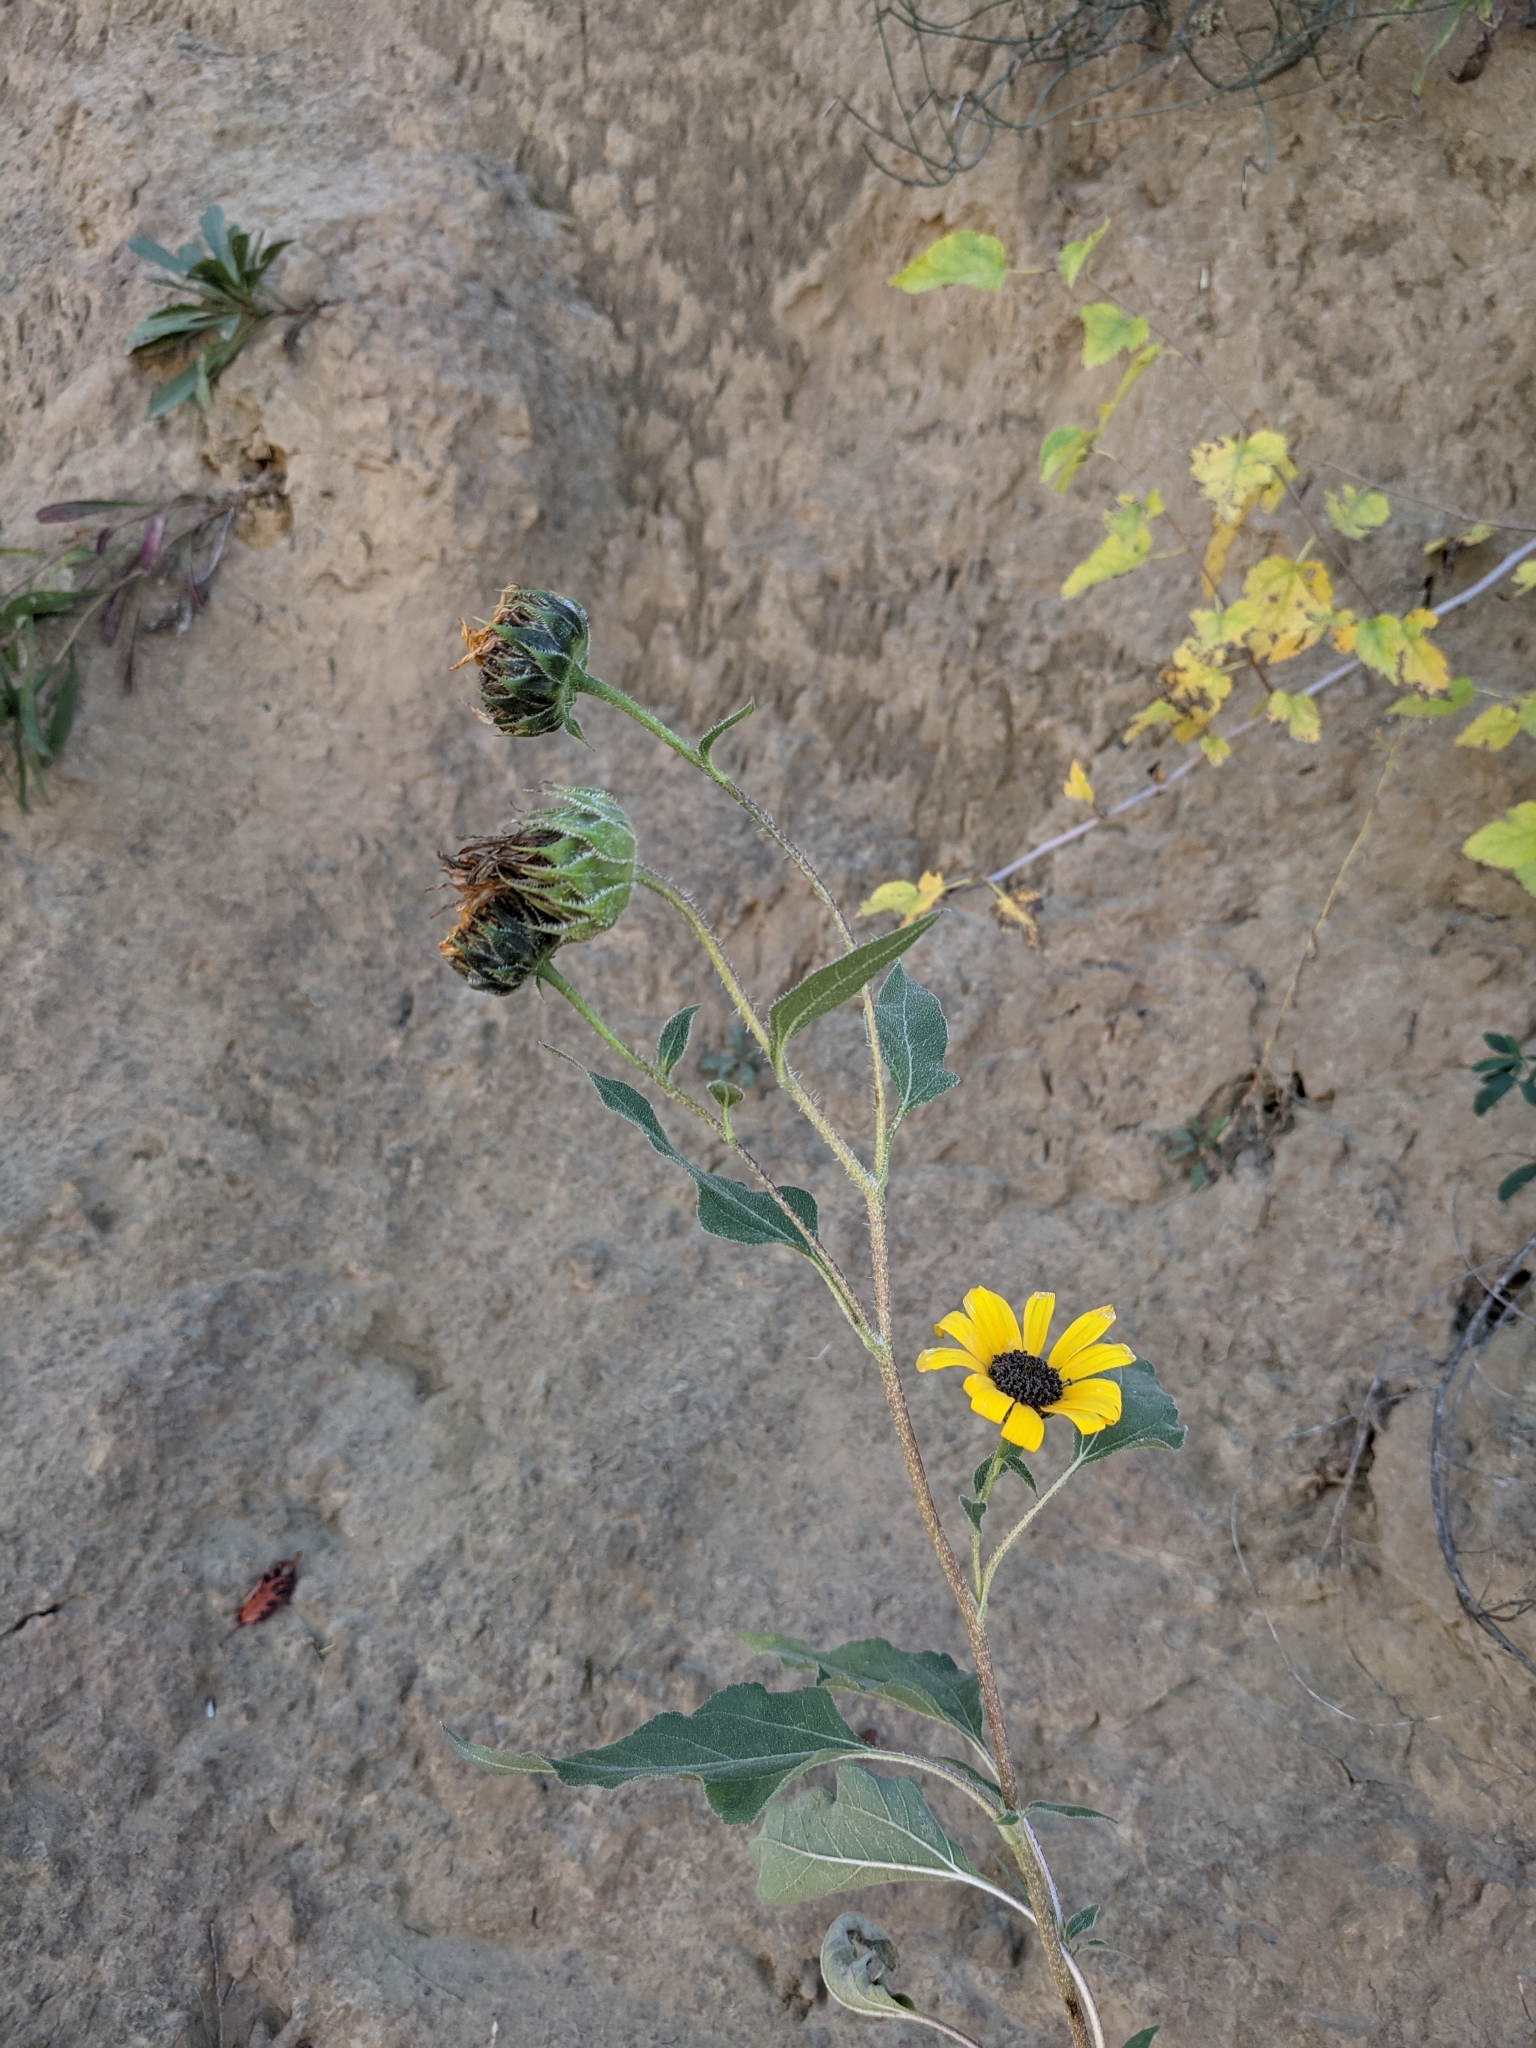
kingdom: Plantae
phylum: Tracheophyta
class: Magnoliopsida
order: Asterales
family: Asteraceae
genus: Helianthus
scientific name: Helianthus annuus
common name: Sunflower
